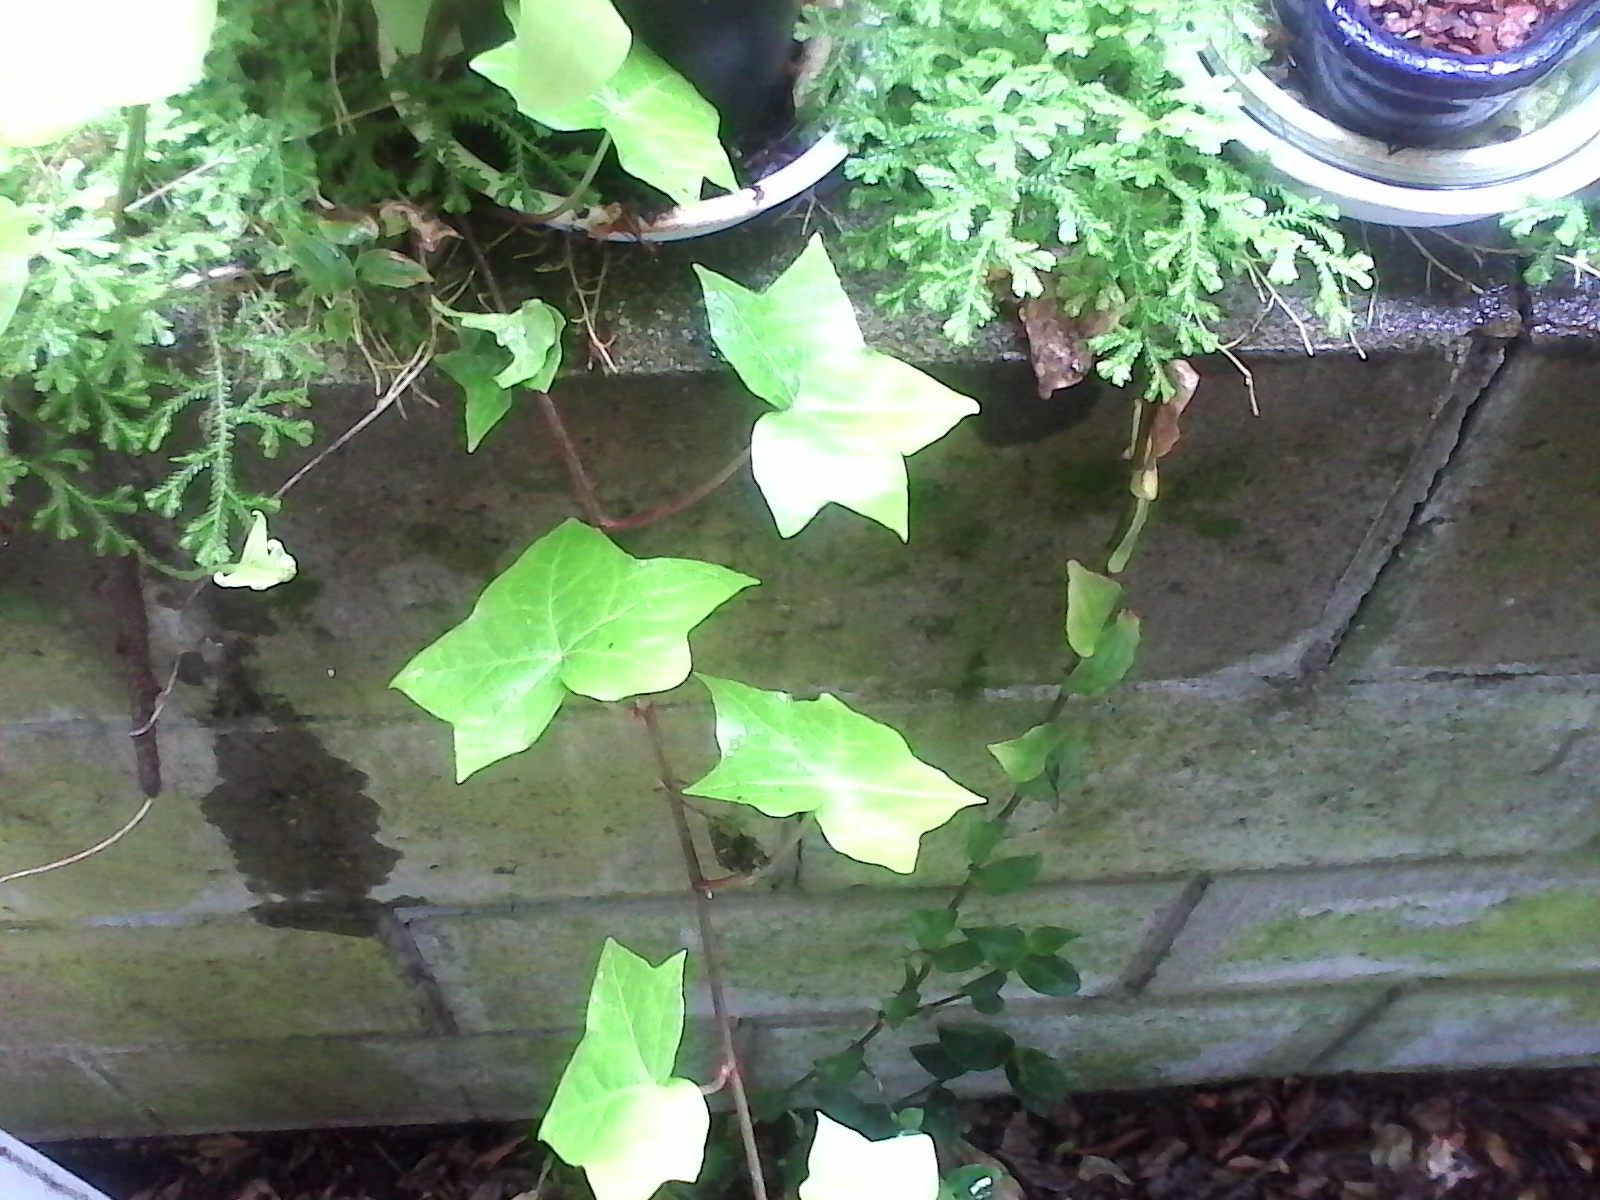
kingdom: Plantae
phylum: Tracheophyta
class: Magnoliopsida
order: Apiales
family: Araliaceae
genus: Hedera
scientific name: Hedera helix
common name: Ivy
